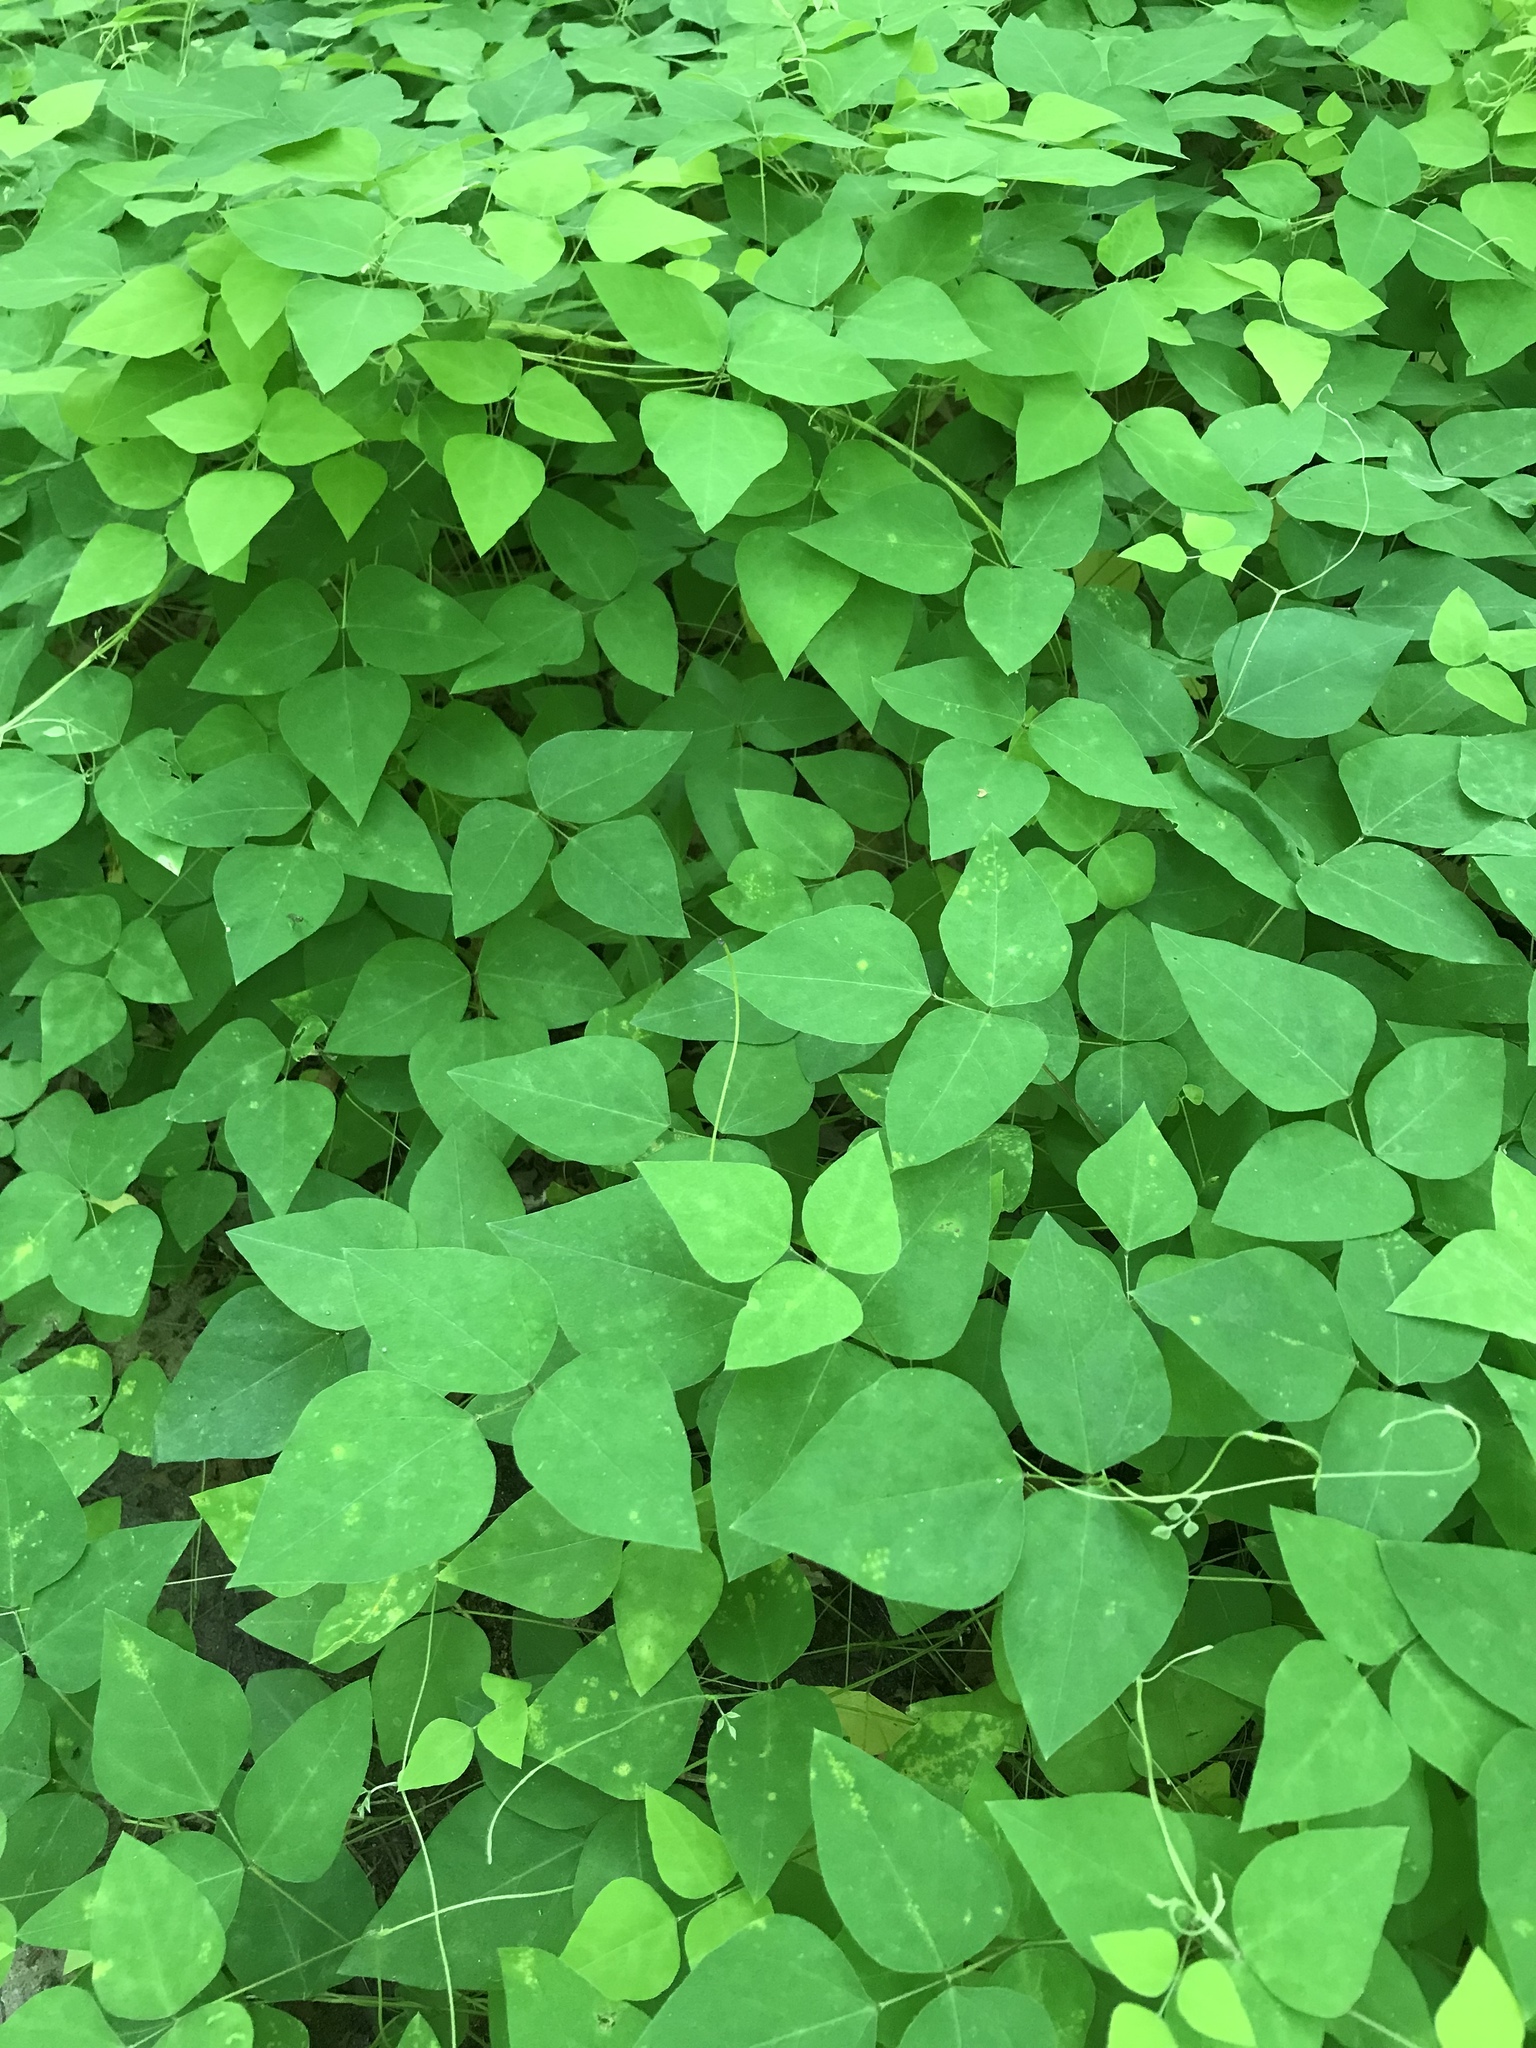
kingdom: Plantae
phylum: Tracheophyta
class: Magnoliopsida
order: Fabales
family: Fabaceae
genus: Amphicarpaea
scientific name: Amphicarpaea bracteata
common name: American hog peanut
